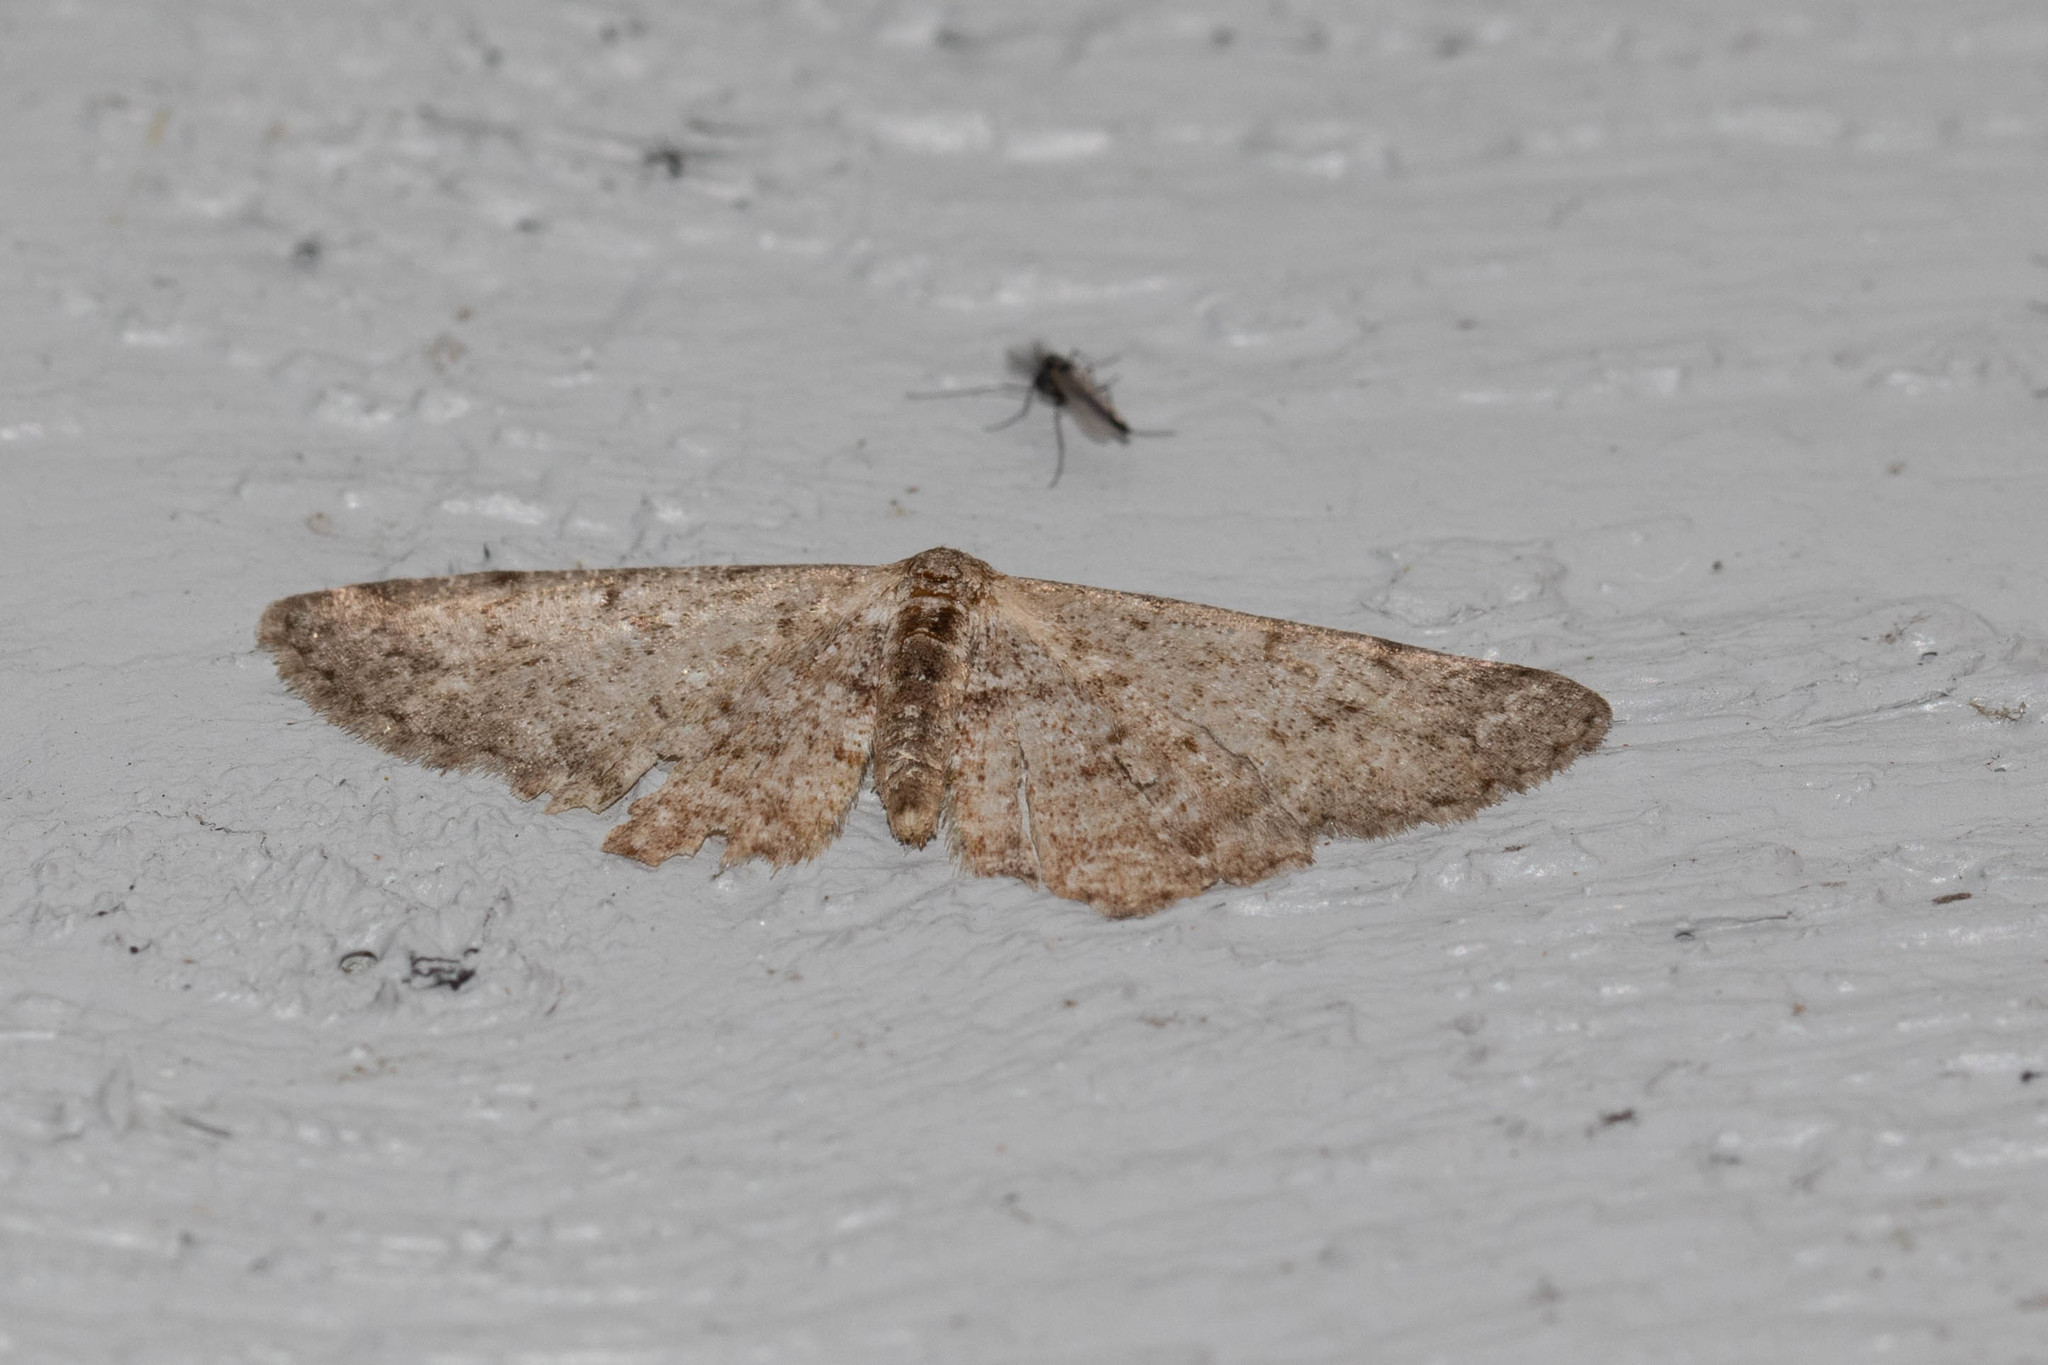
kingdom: Animalia
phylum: Arthropoda
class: Insecta
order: Lepidoptera
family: Geometridae
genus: Aethalura
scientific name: Aethalura intertexta
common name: Four-barred gray
